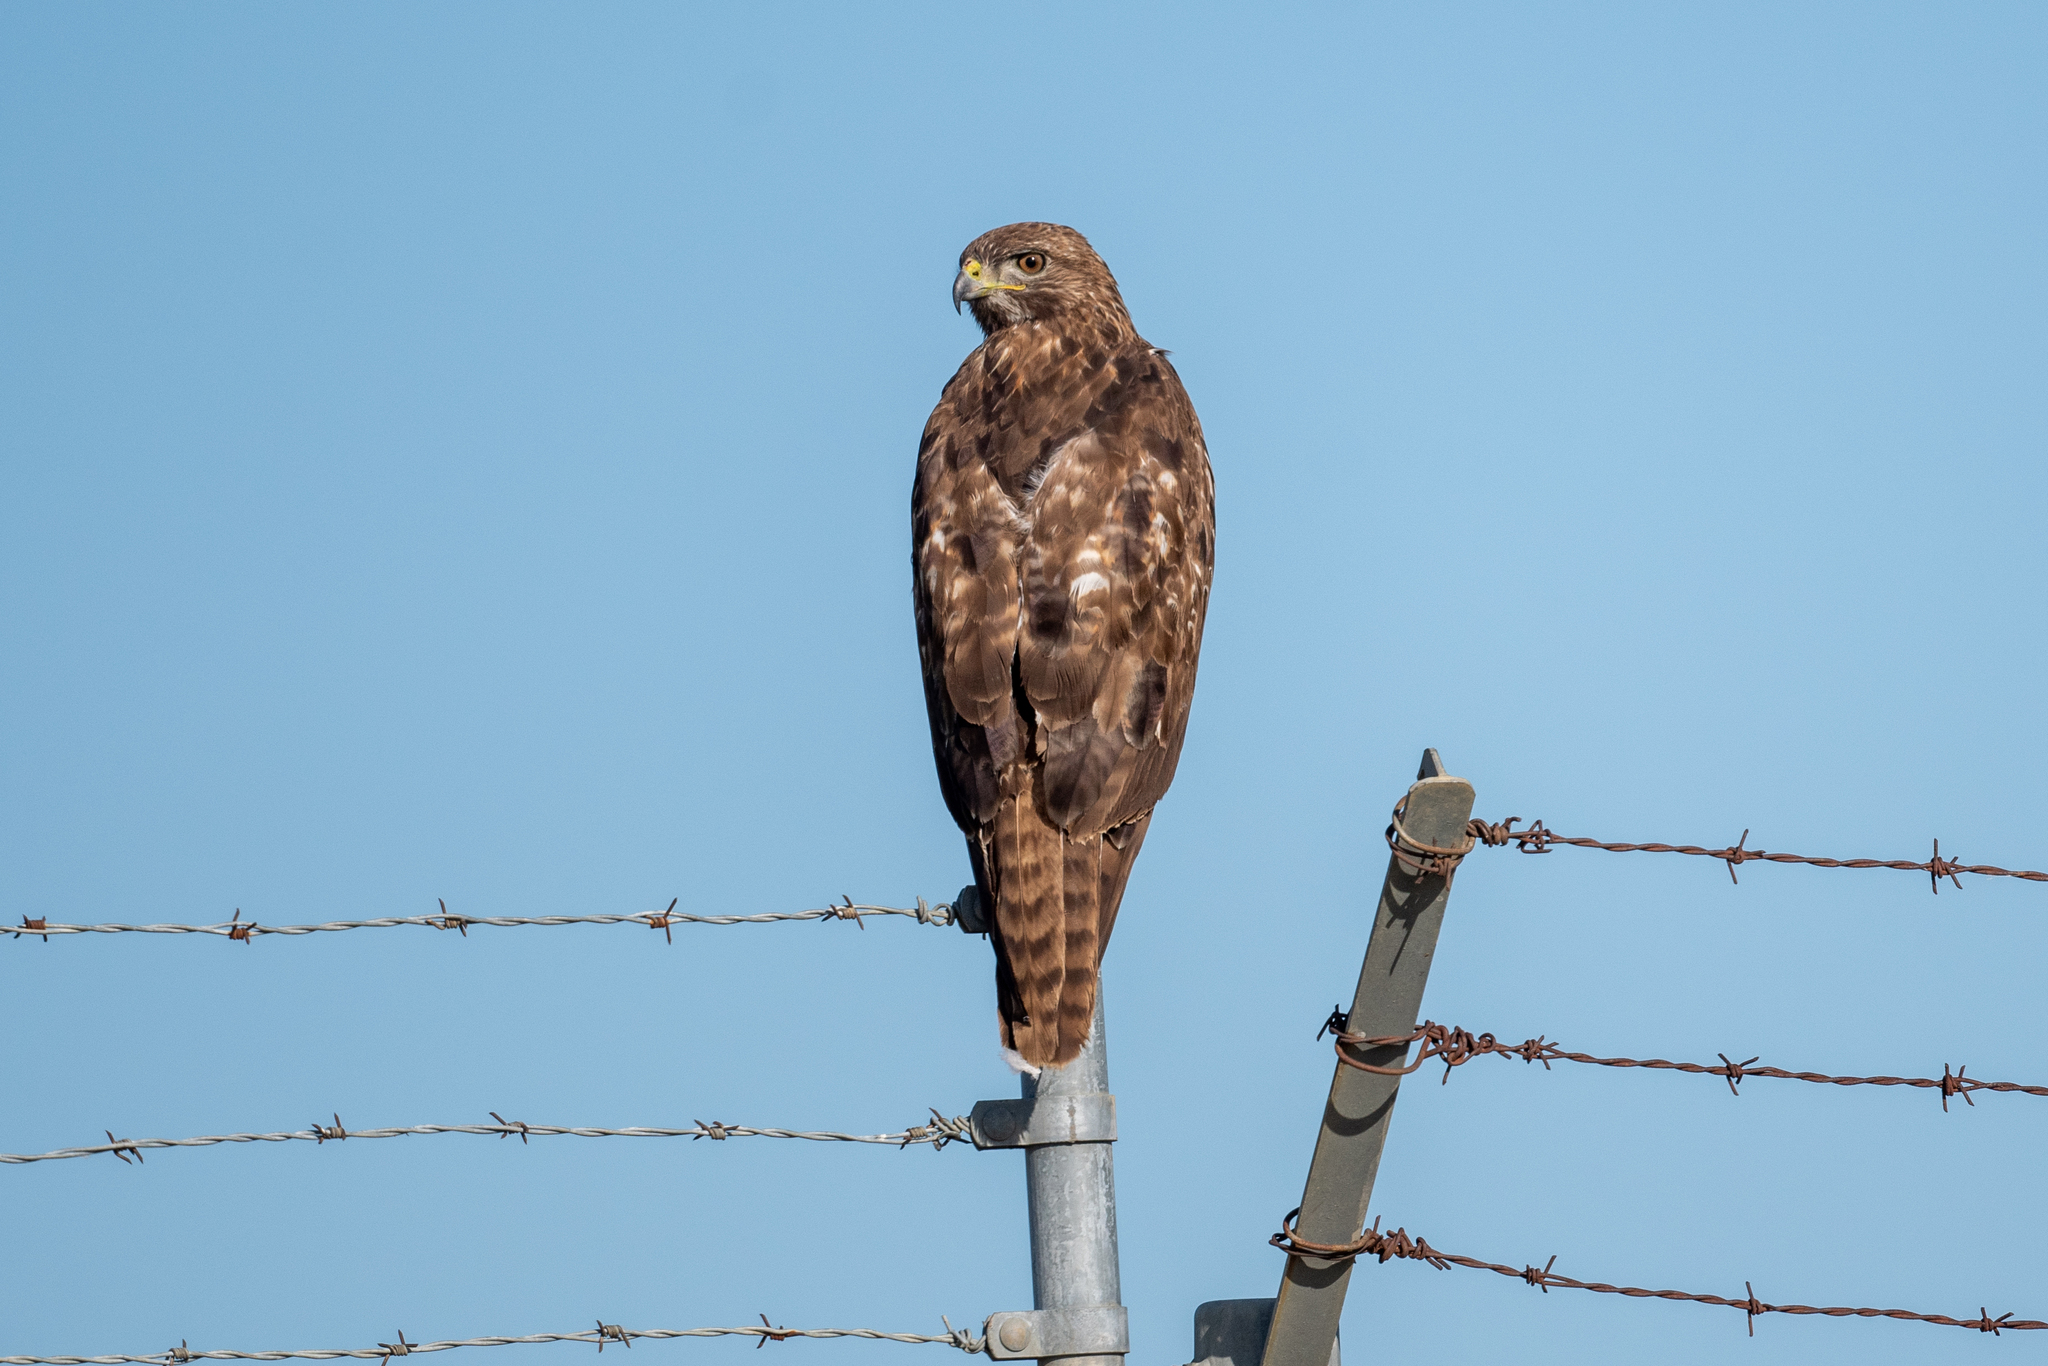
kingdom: Animalia
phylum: Chordata
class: Aves
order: Accipitriformes
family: Accipitridae
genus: Buteo
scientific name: Buteo jamaicensis
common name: Red-tailed hawk
